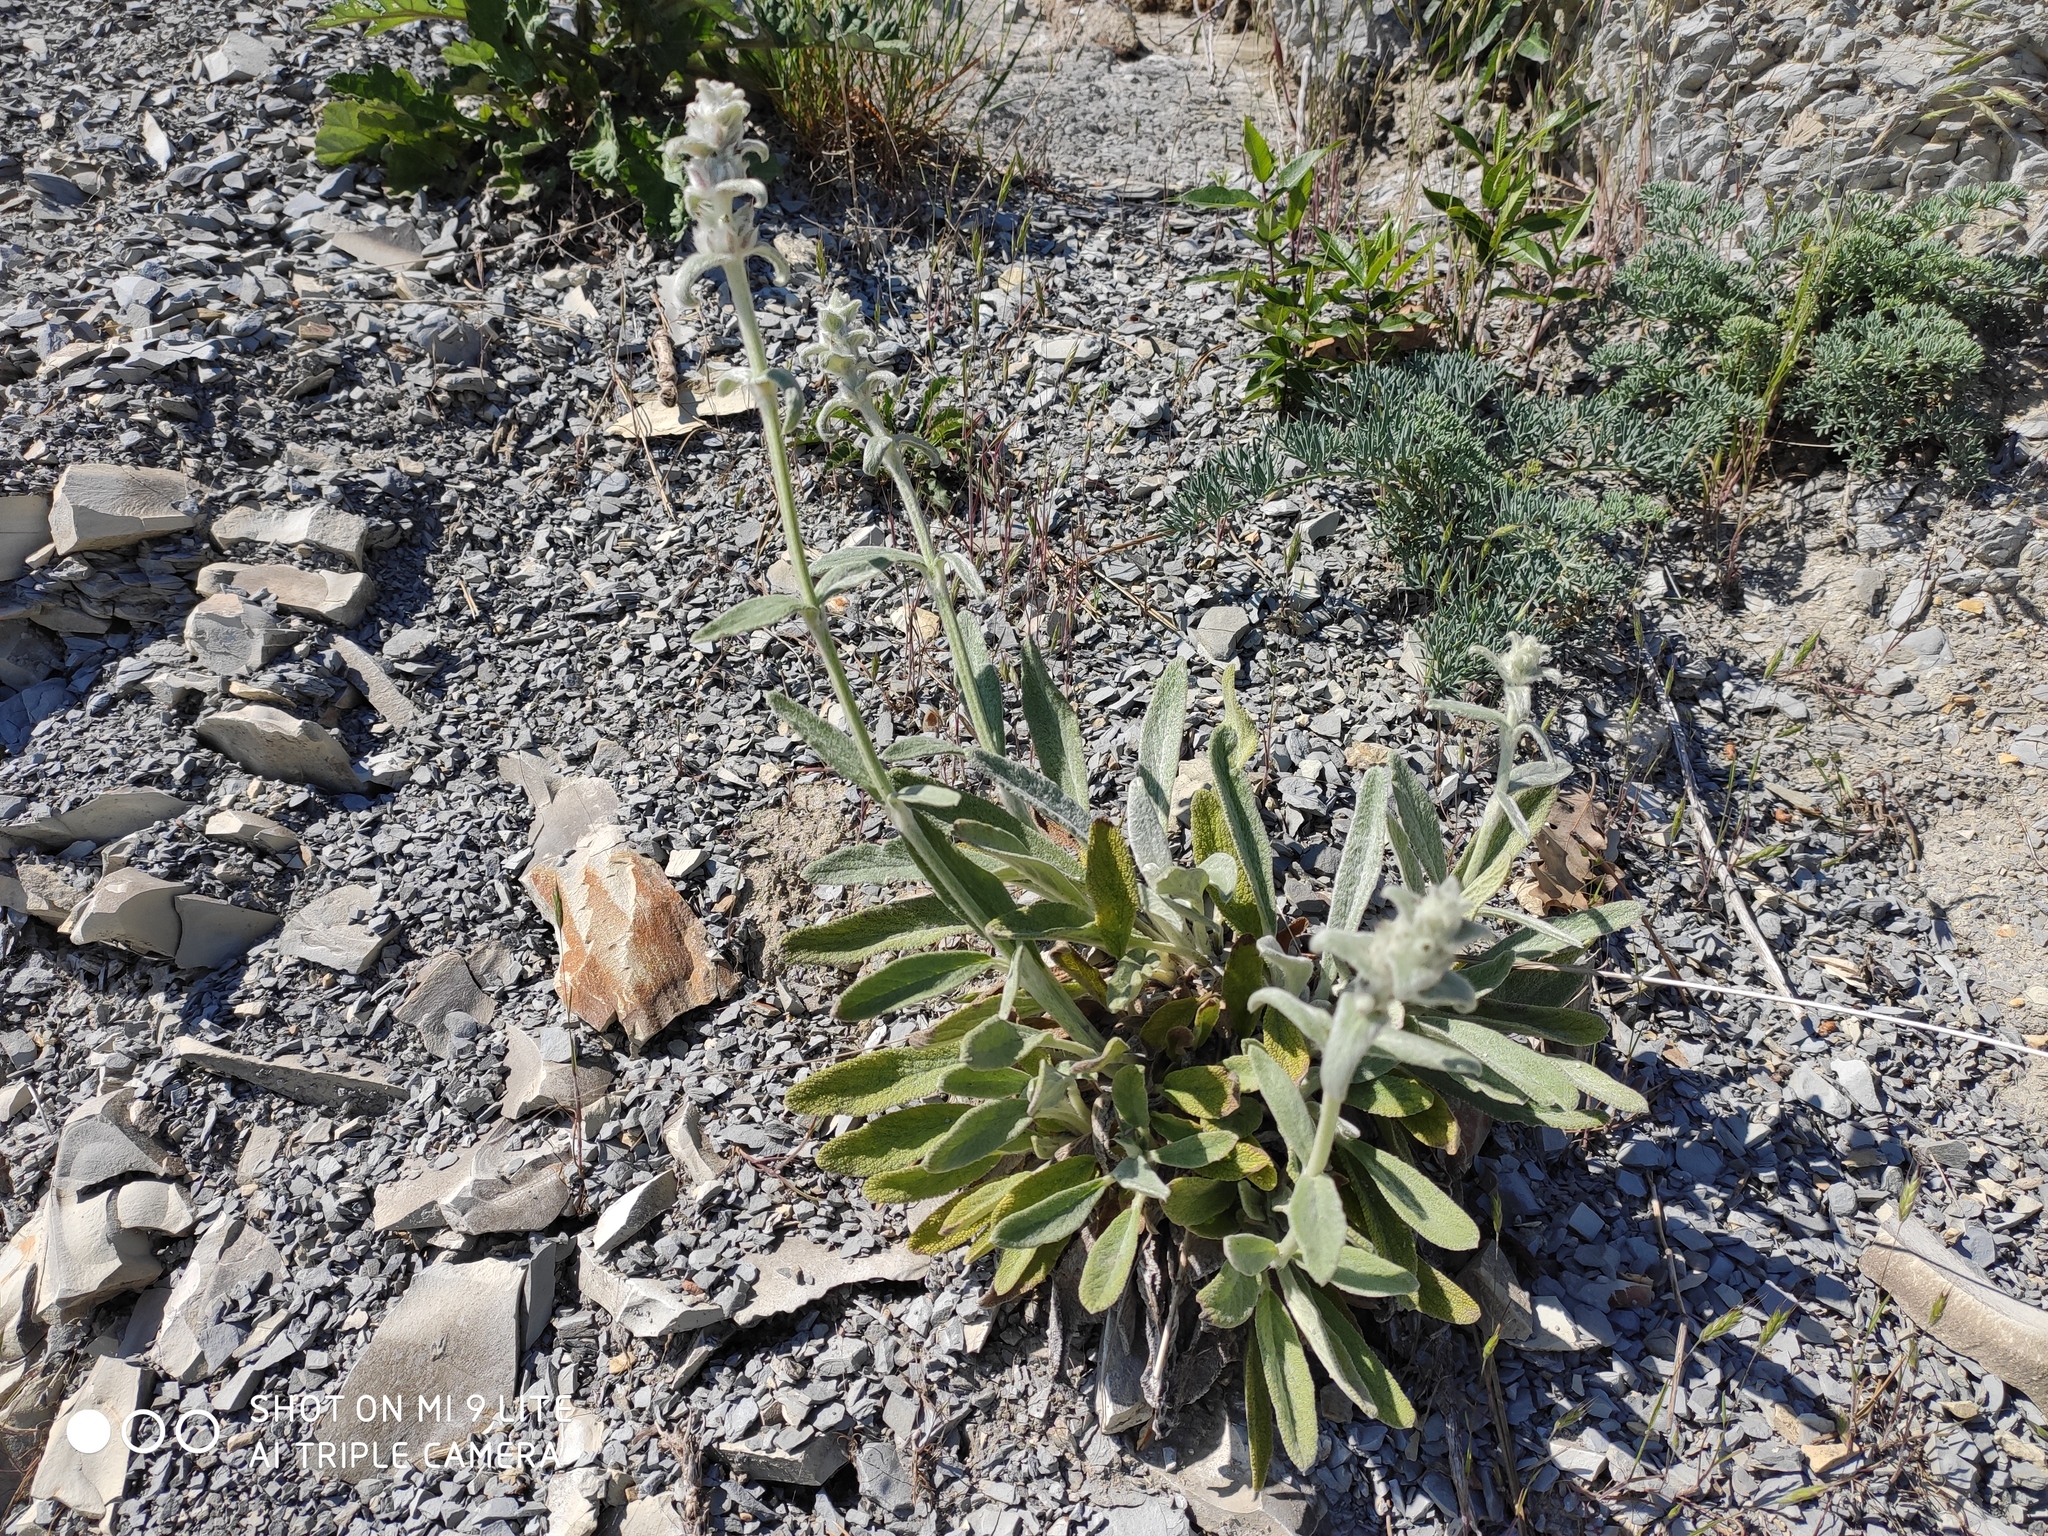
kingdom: Plantae
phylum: Tracheophyta
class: Magnoliopsida
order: Lamiales
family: Lamiaceae
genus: Stachys
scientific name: Stachys cretica
